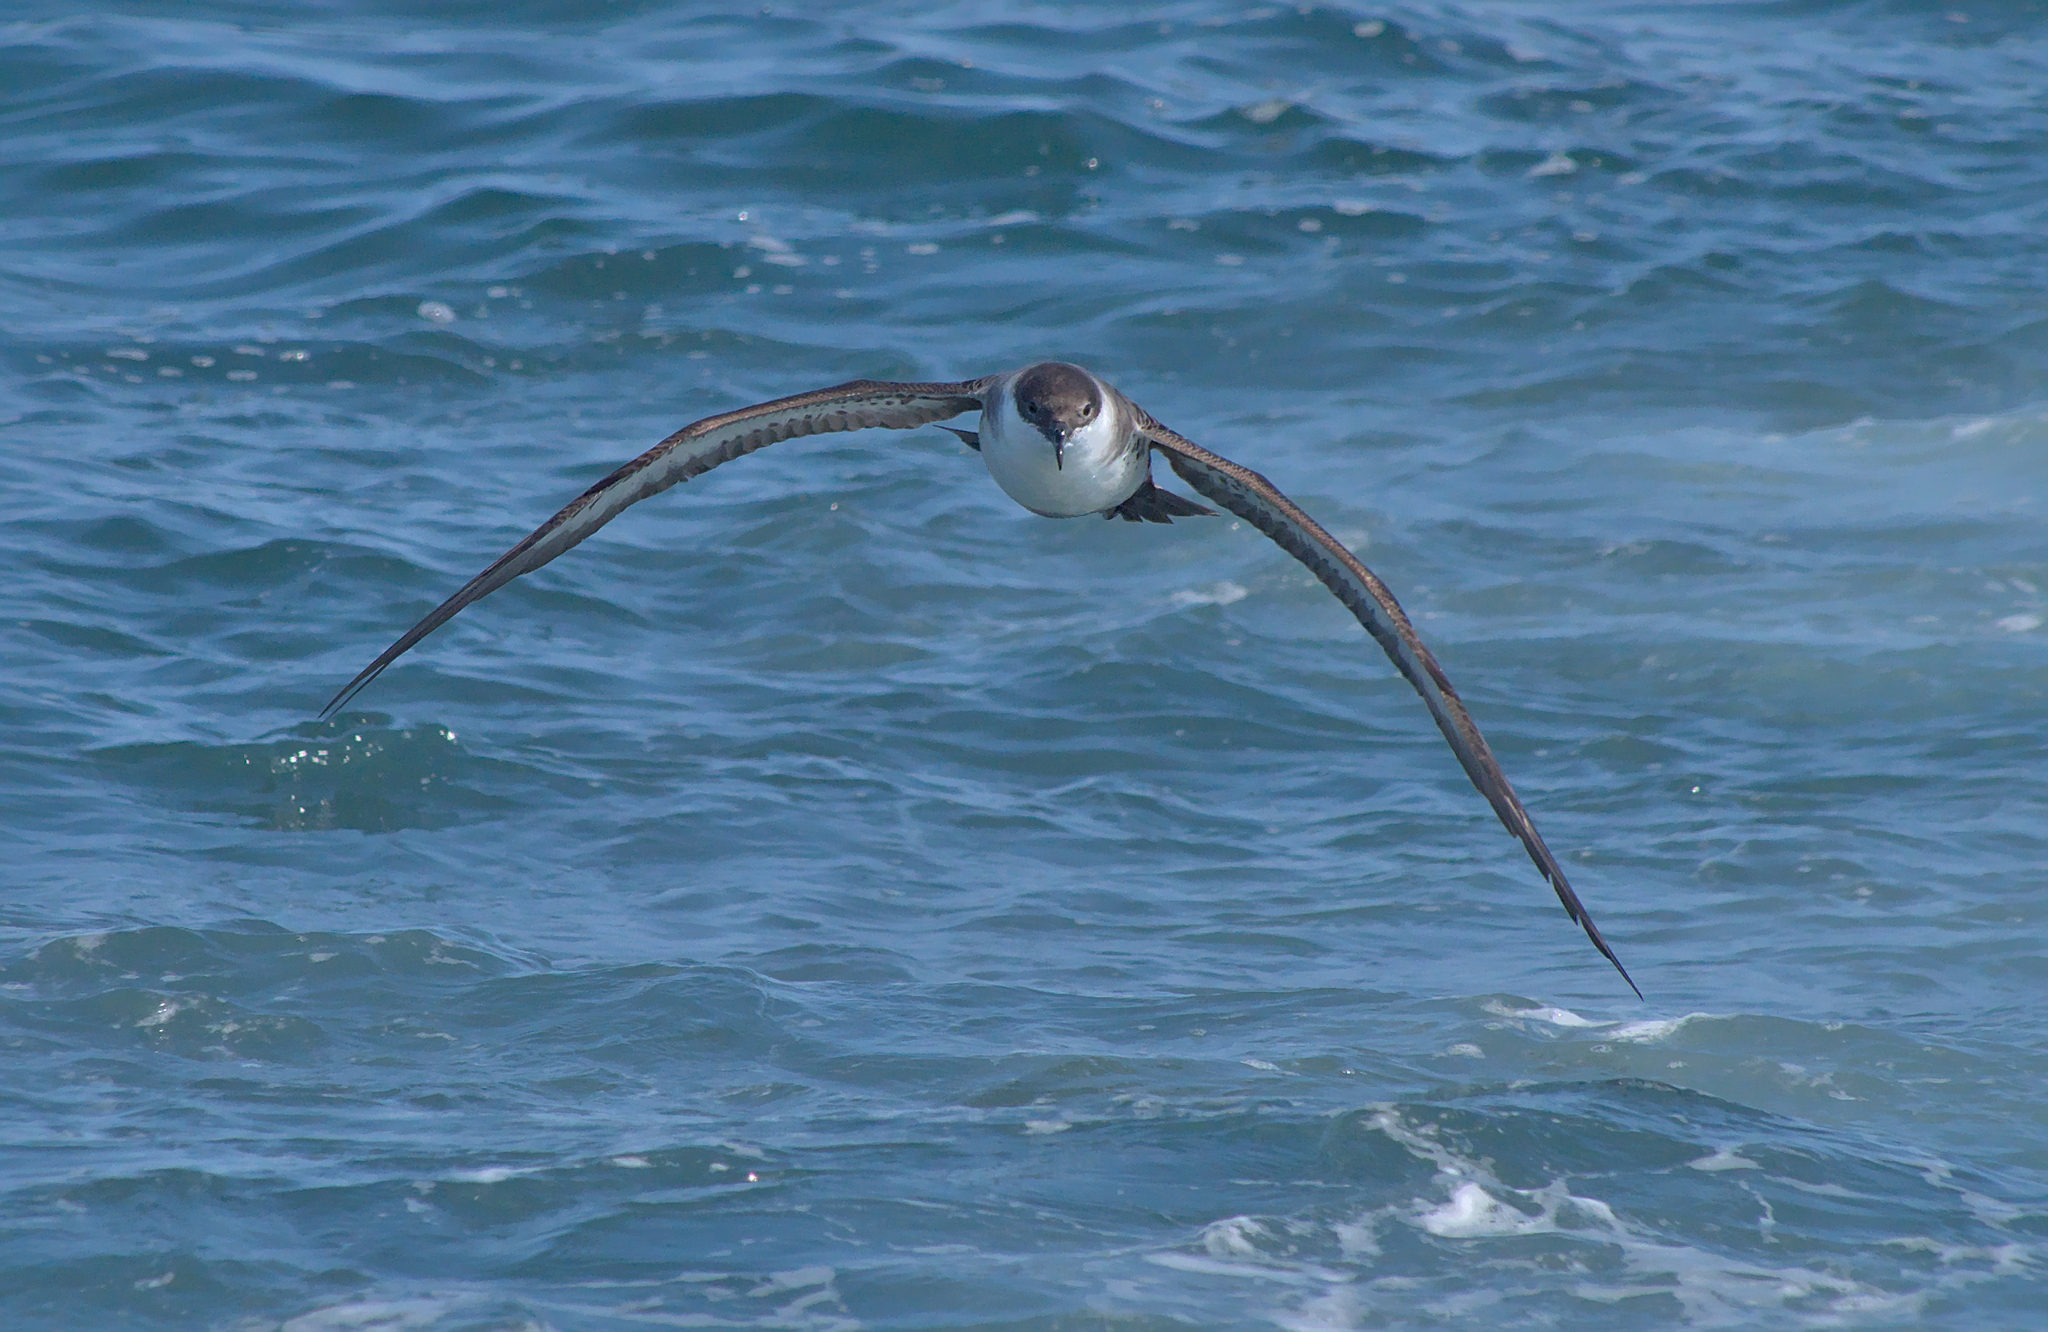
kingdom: Animalia
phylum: Chordata
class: Aves
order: Procellariiformes
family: Procellariidae
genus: Puffinus
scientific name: Puffinus gravis
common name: Great shearwater
